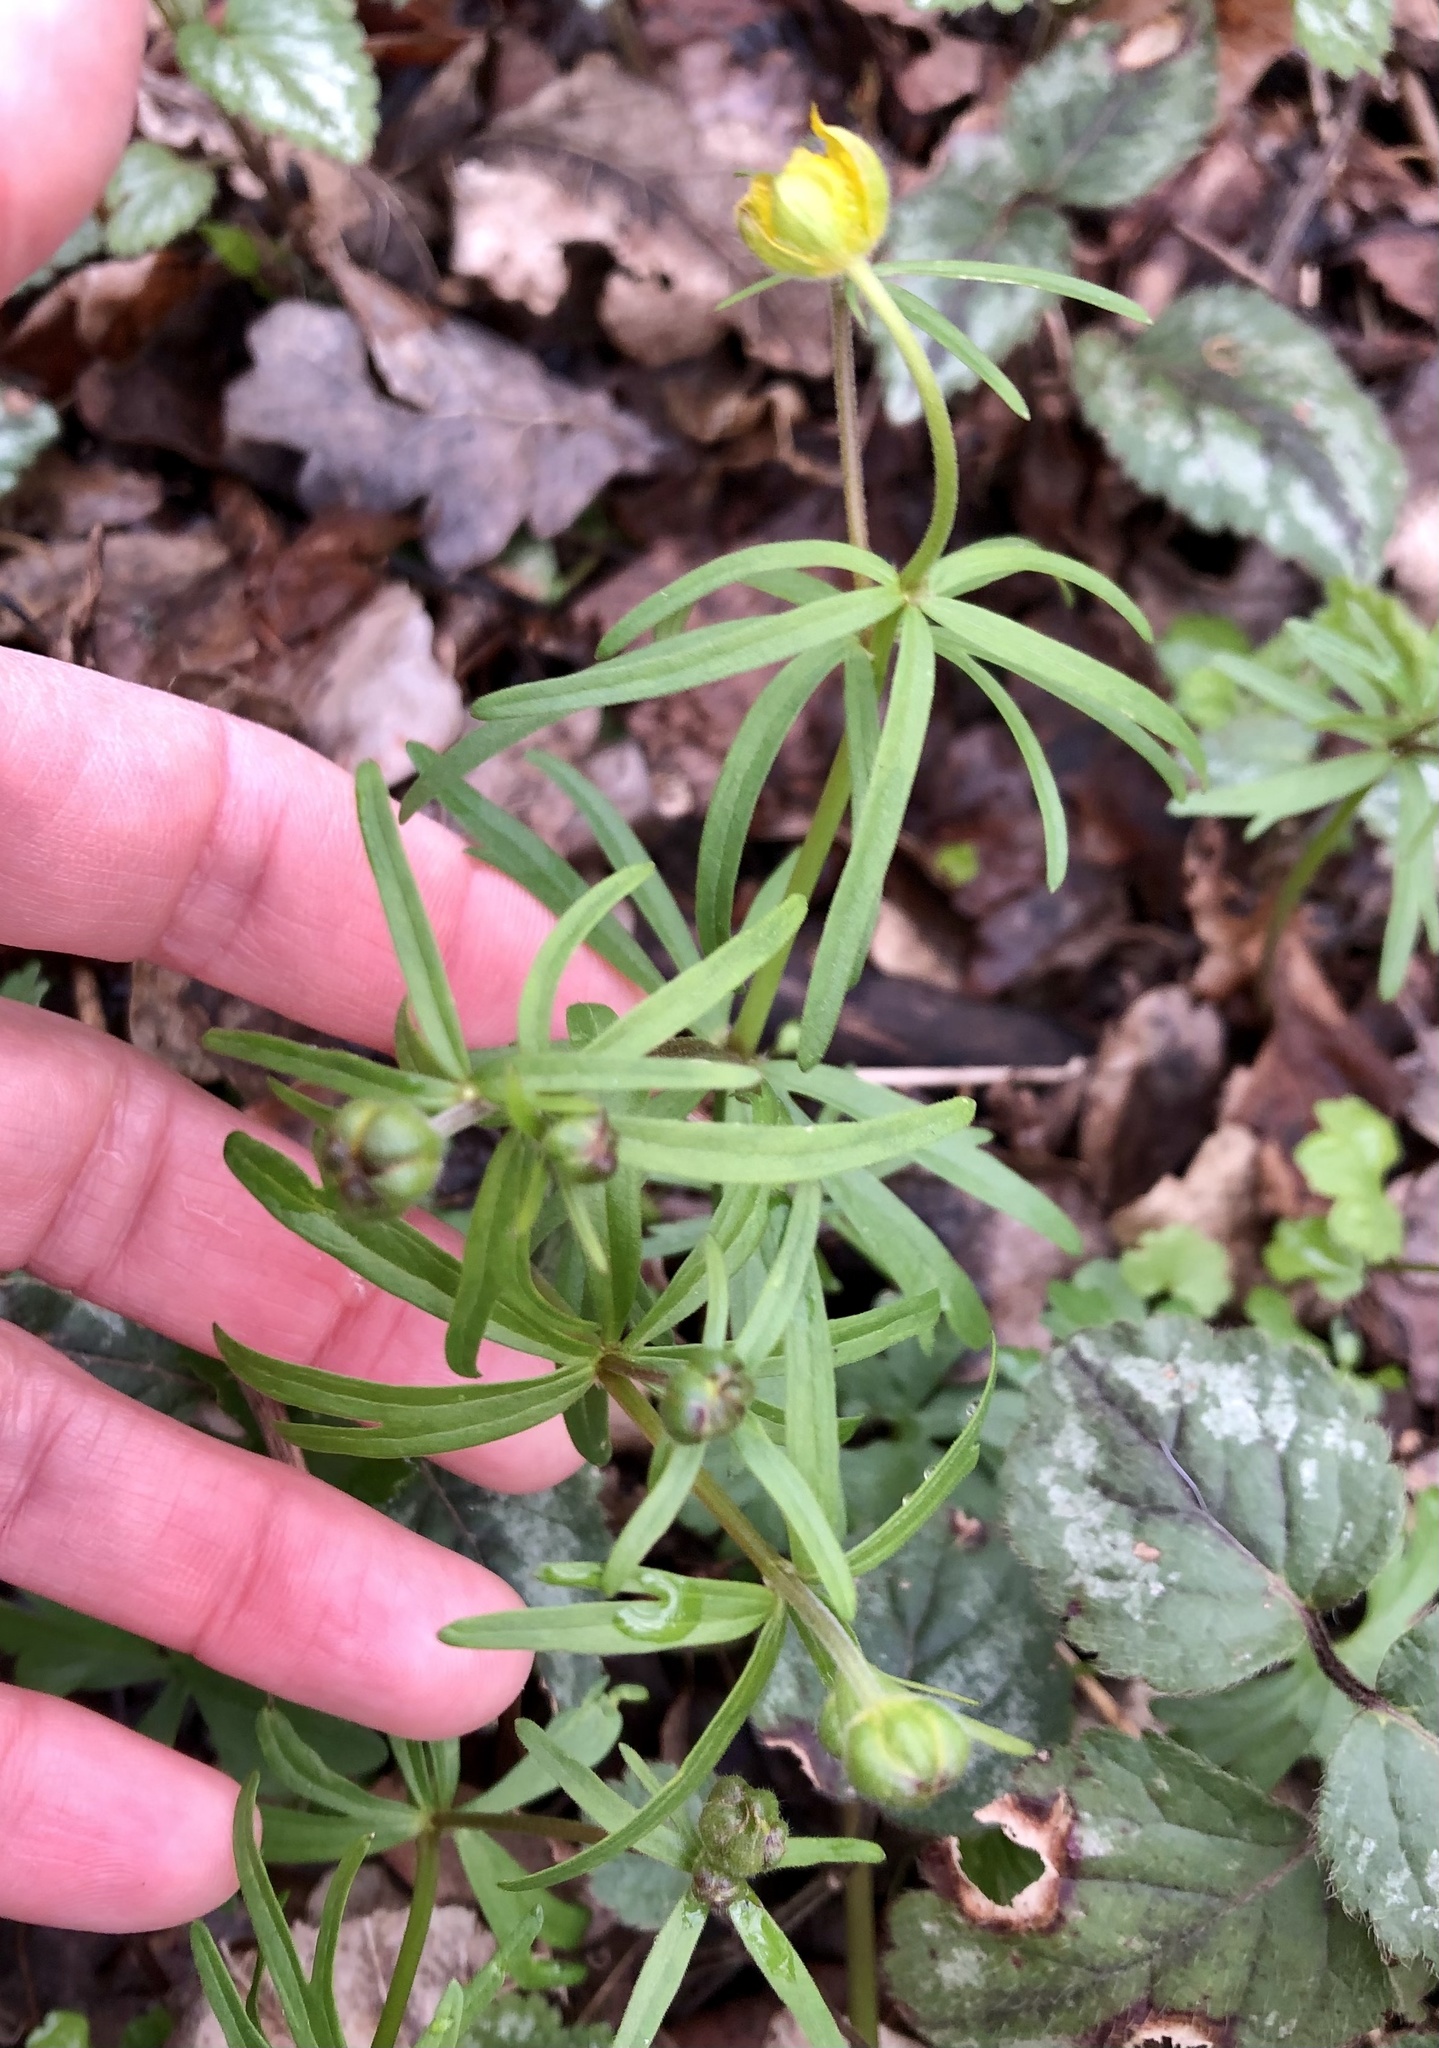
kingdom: Plantae
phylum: Tracheophyta
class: Magnoliopsida
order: Ranunculales
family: Ranunculaceae
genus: Ranunculus
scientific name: Ranunculus auricomus
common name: Goldilocks buttercup
